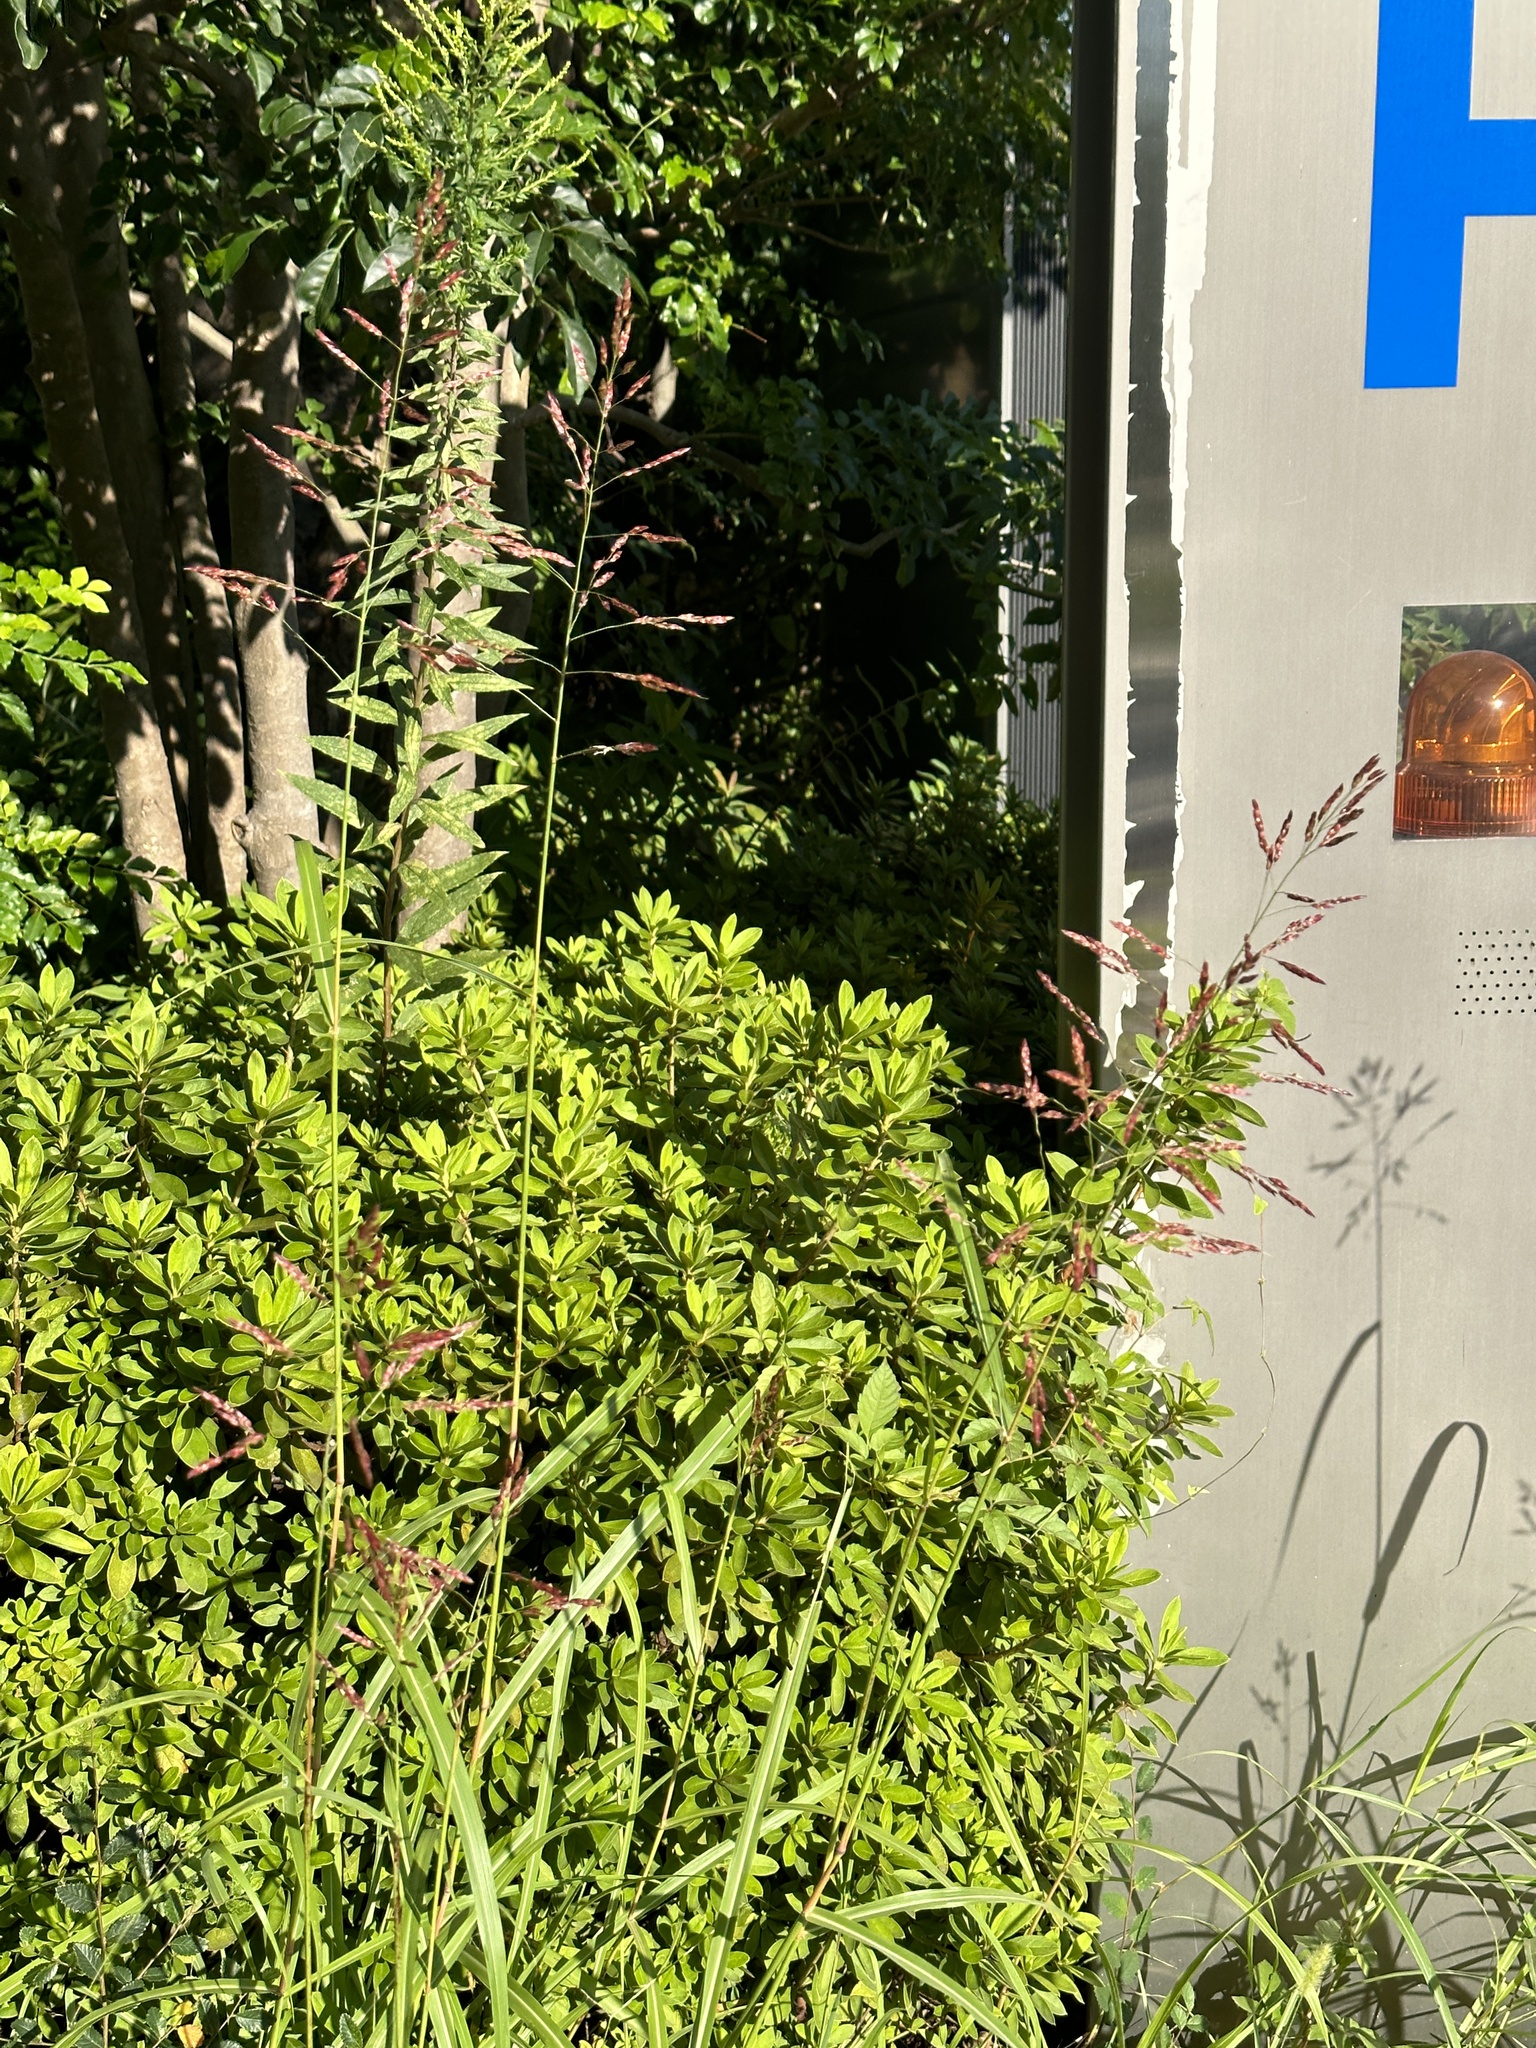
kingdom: Plantae
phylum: Tracheophyta
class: Liliopsida
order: Poales
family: Poaceae
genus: Sorghum
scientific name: Sorghum halepense
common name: Johnson-grass
